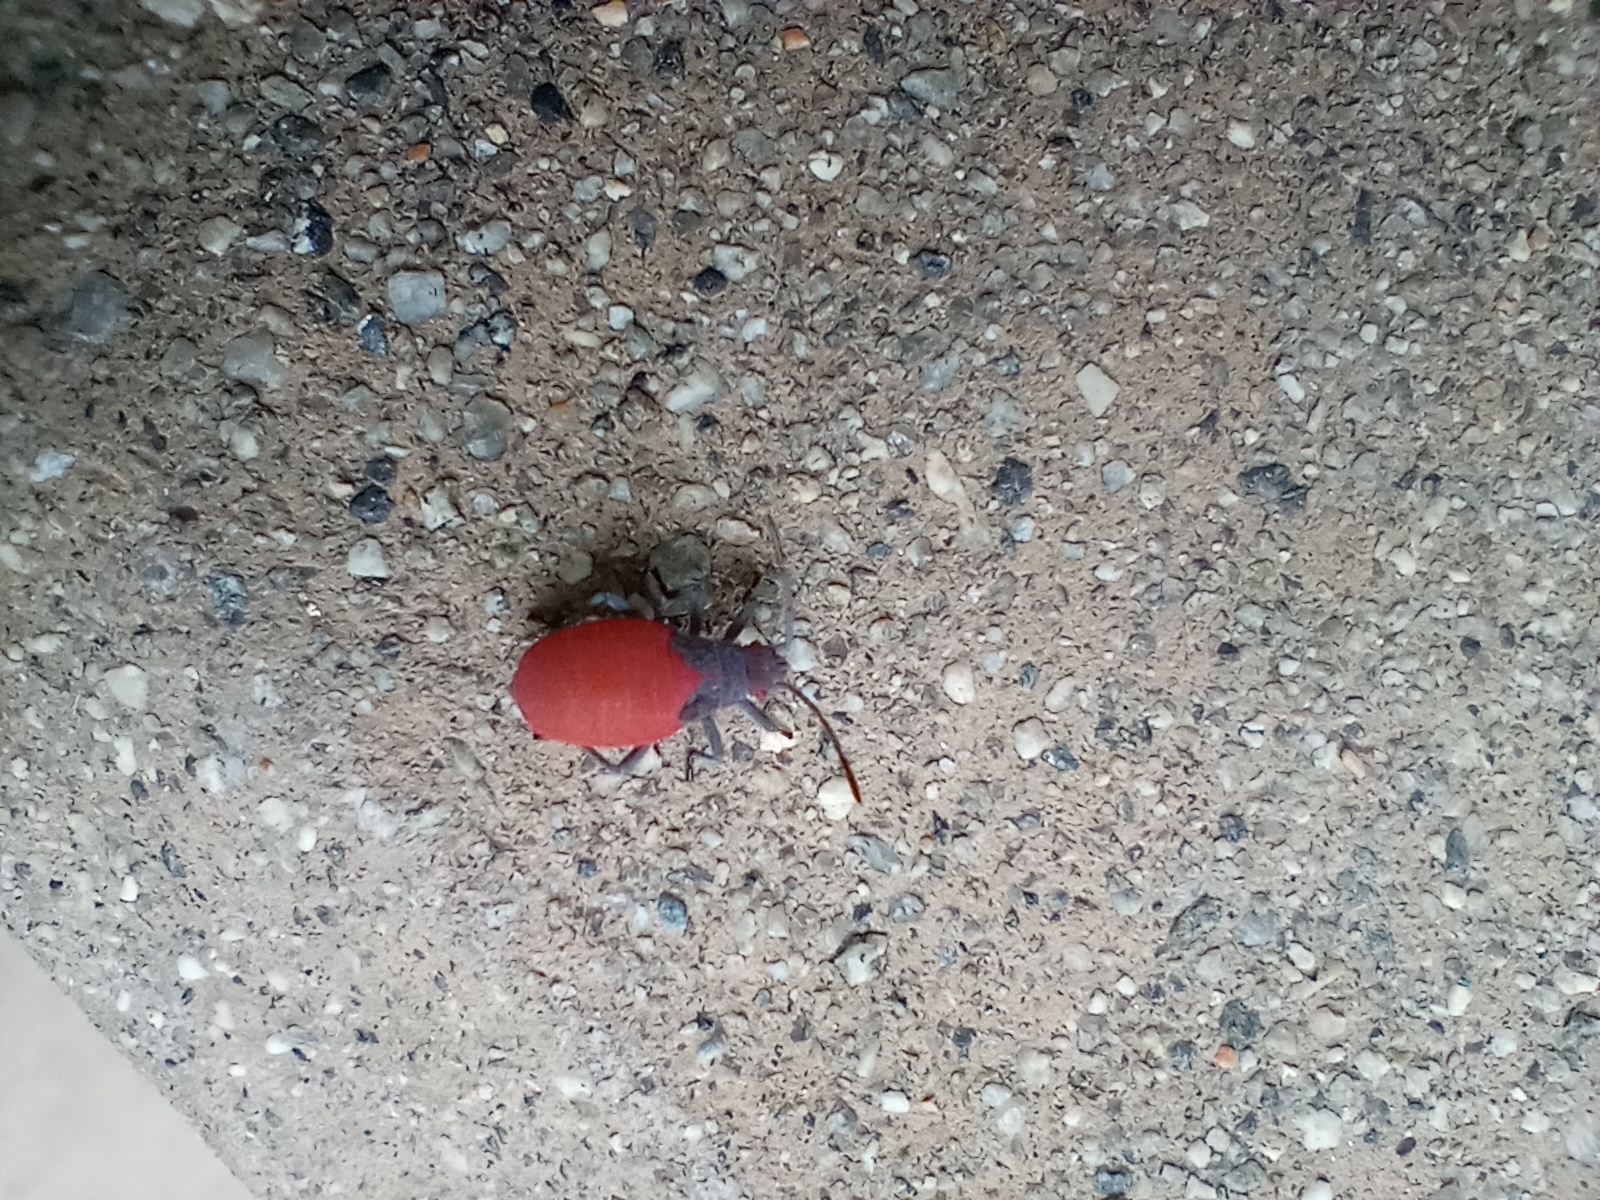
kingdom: Animalia
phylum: Arthropoda
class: Insecta
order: Hemiptera
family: Rhopalidae
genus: Jadera
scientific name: Jadera haematoloma
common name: Red-shouldered bug
